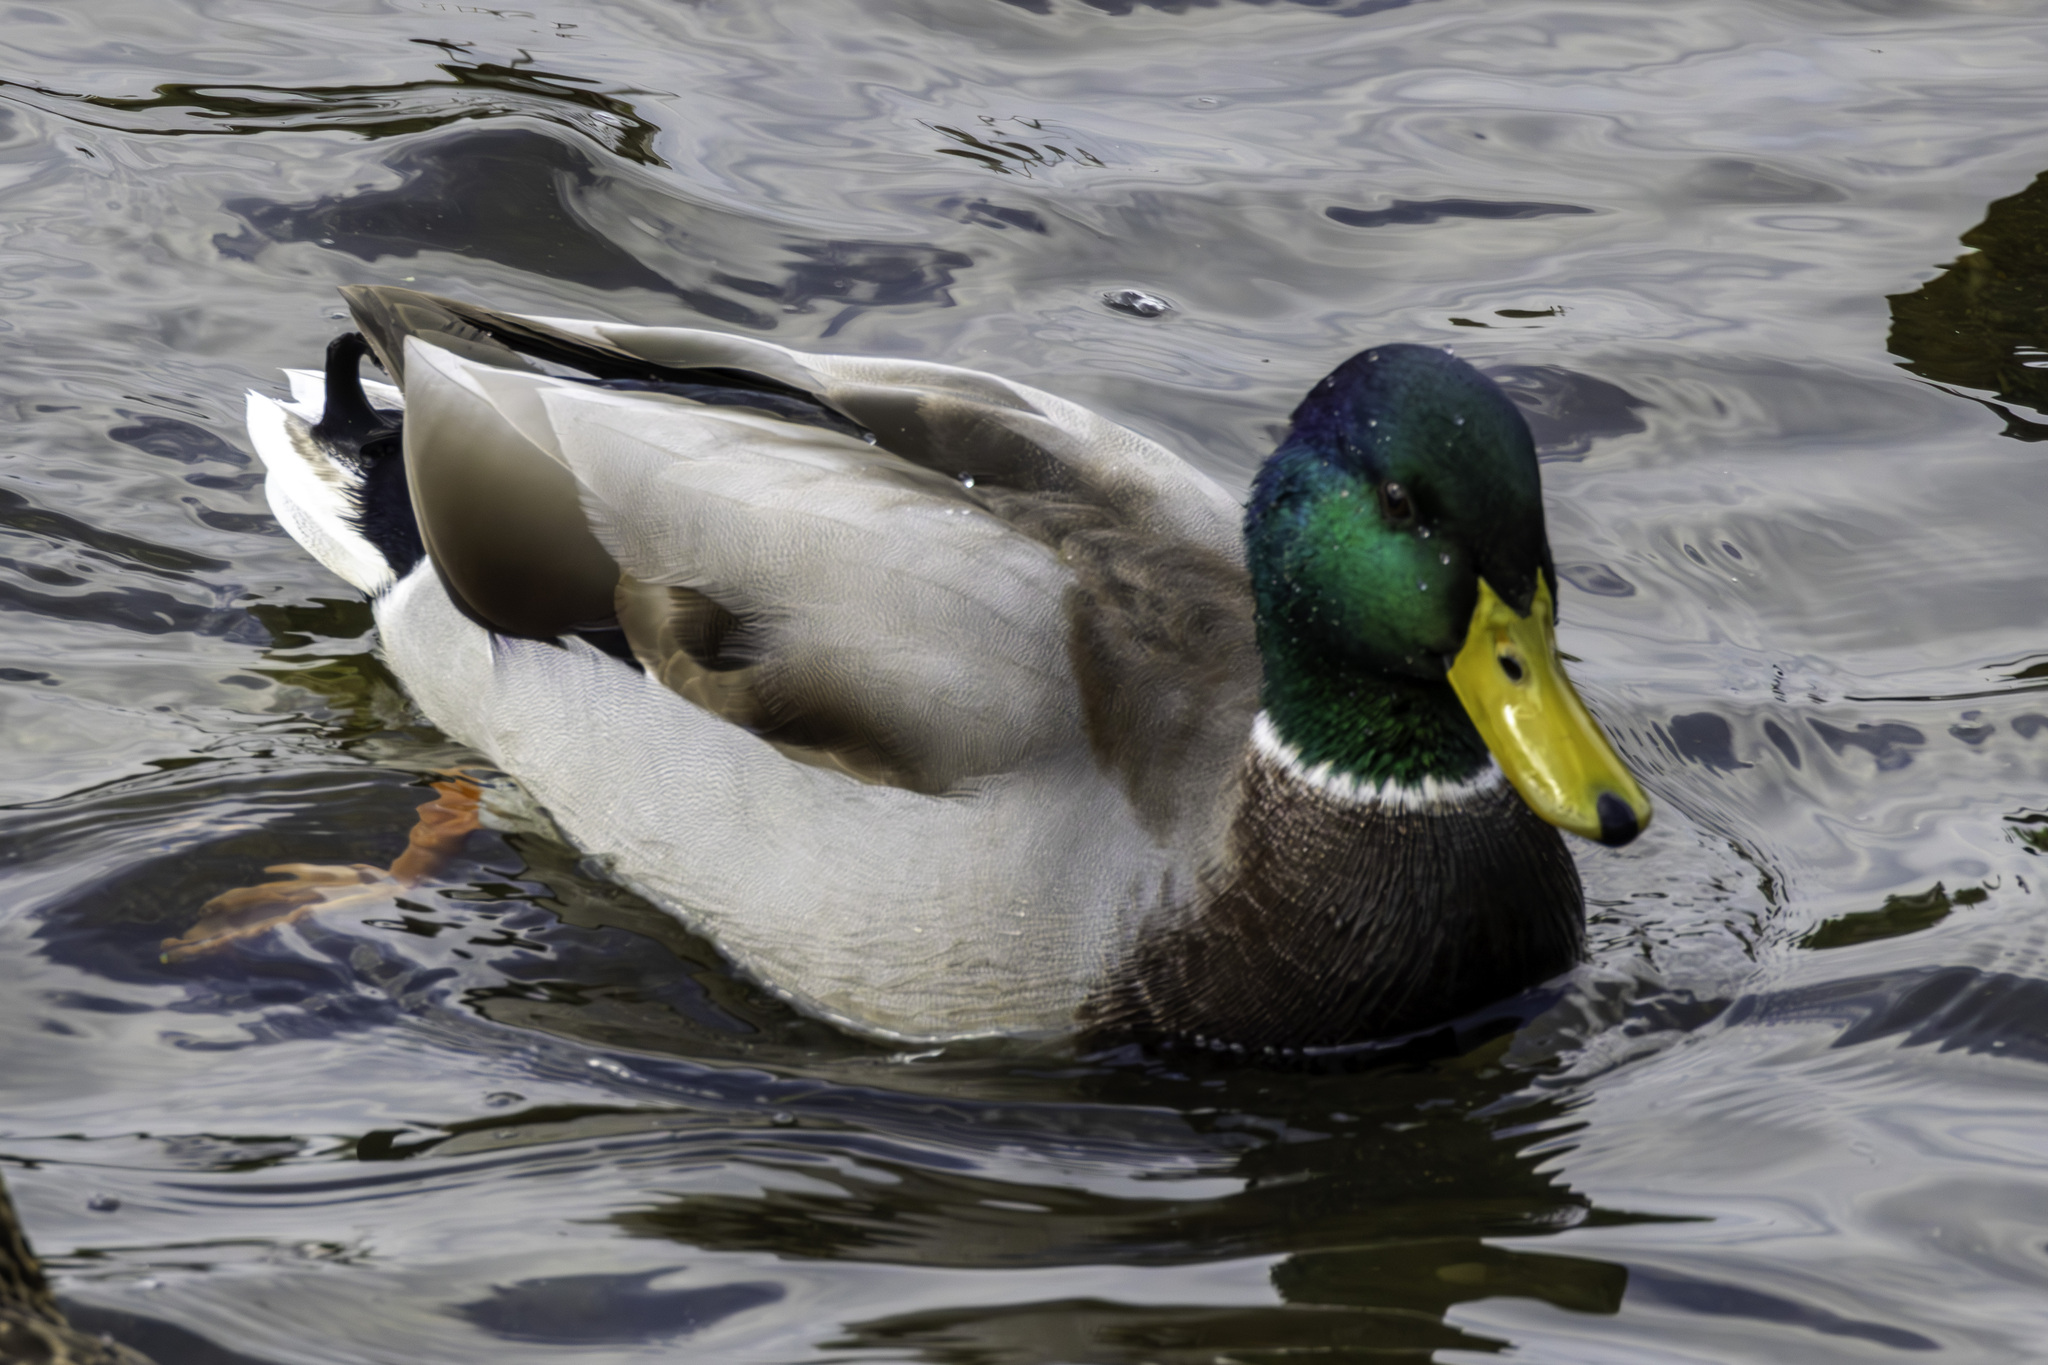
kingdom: Animalia
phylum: Chordata
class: Aves
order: Anseriformes
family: Anatidae
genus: Anas
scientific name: Anas platyrhynchos
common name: Mallard
